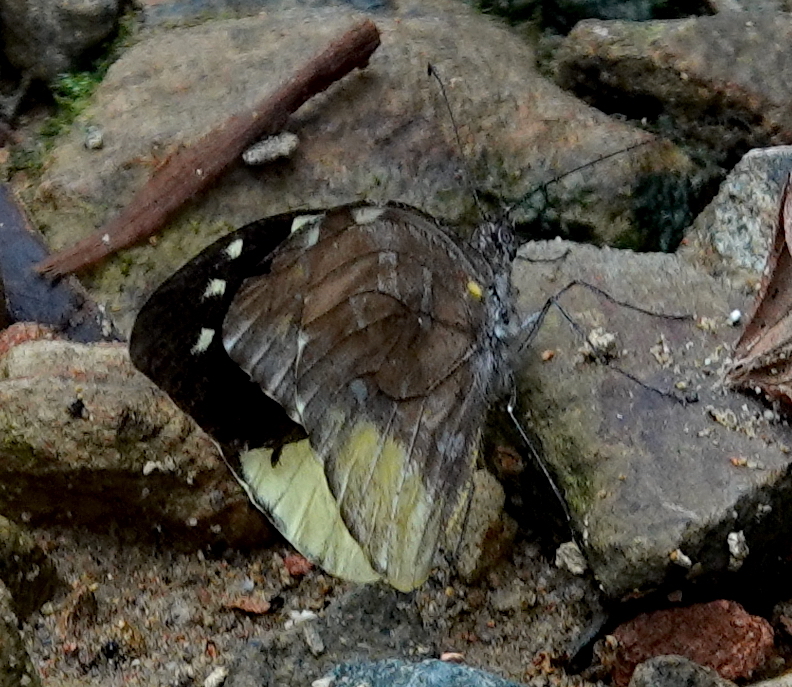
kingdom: Animalia
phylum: Arthropoda
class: Insecta
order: Lepidoptera
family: Pieridae
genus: Lieinix
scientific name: Lieinix nemesis
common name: Frosted mimic-white
